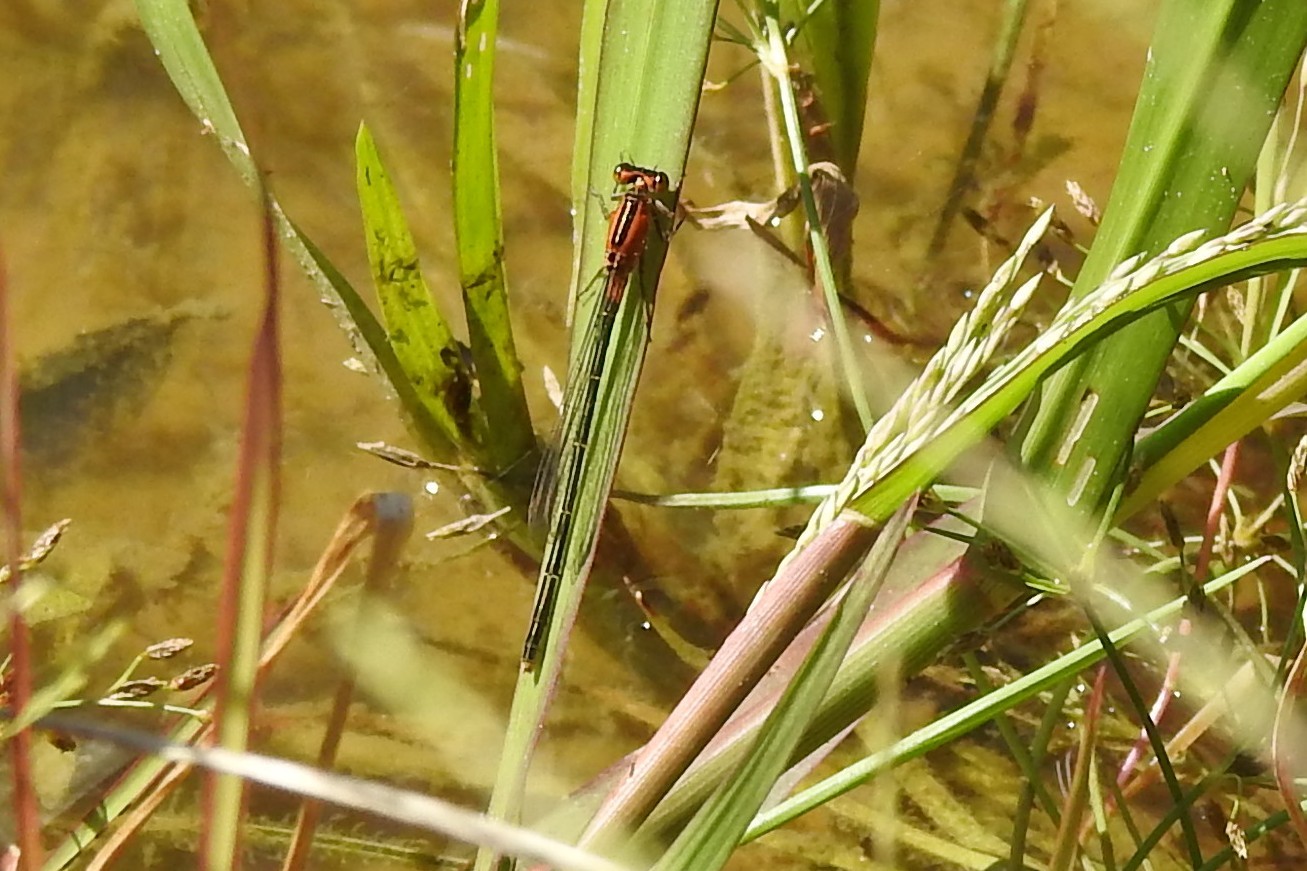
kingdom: Animalia
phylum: Arthropoda
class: Insecta
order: Odonata
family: Coenagrionidae
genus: Ischnura
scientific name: Ischnura ramburii
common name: Rambur's forktail
